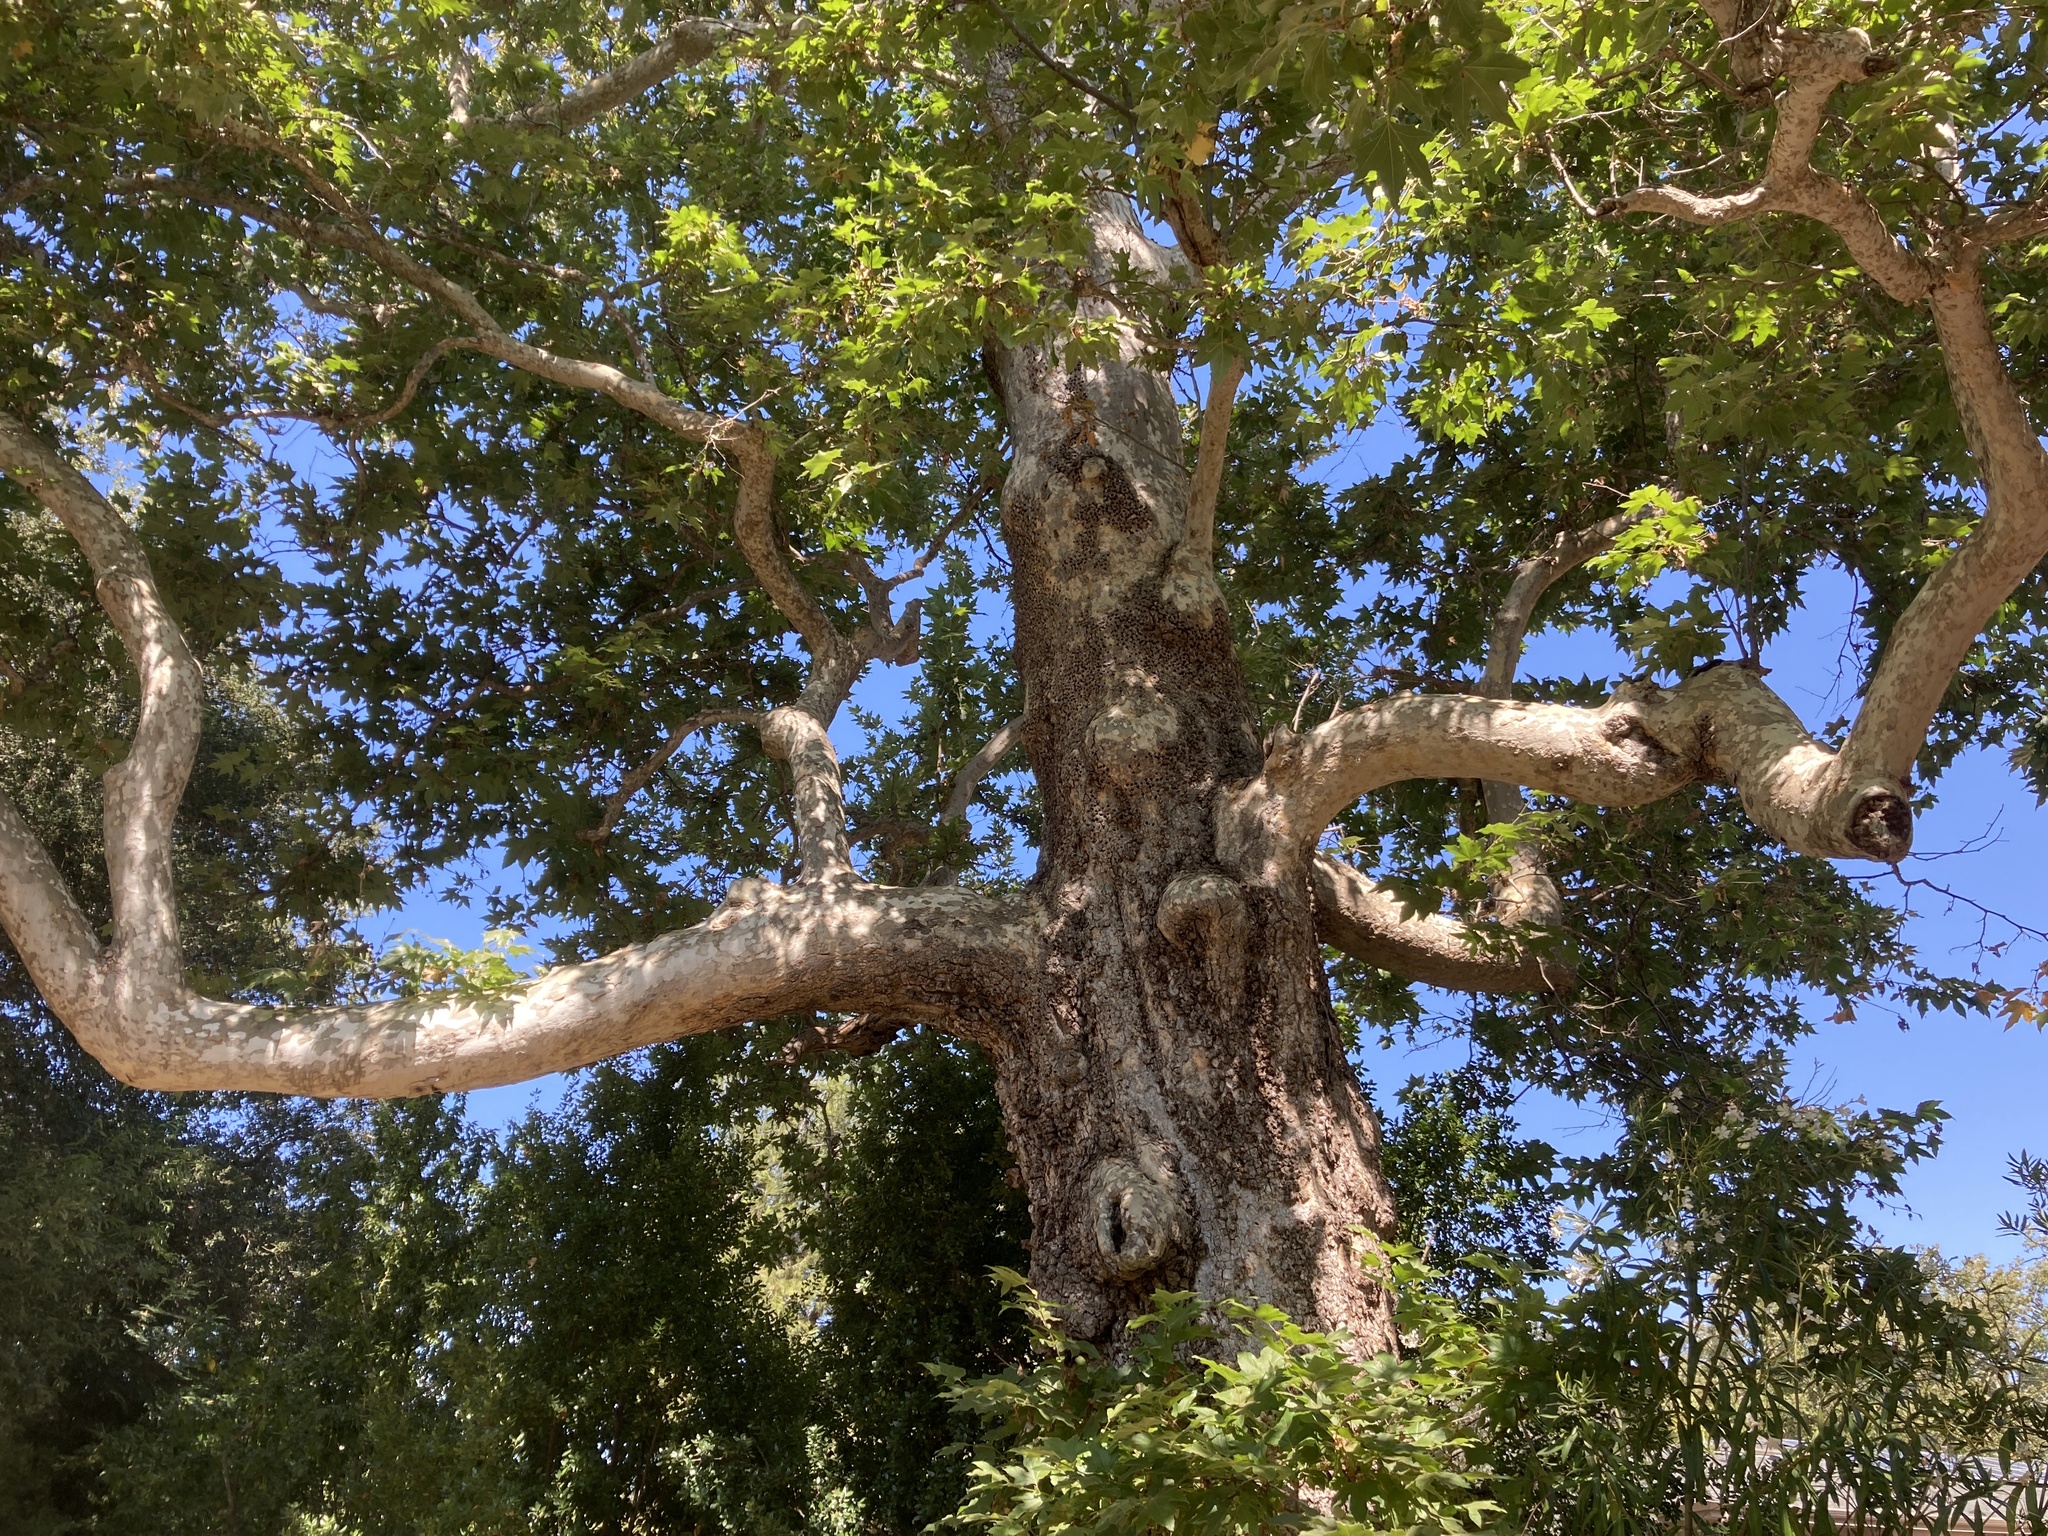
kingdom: Plantae
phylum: Tracheophyta
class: Magnoliopsida
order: Proteales
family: Platanaceae
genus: Platanus
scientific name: Platanus racemosa
